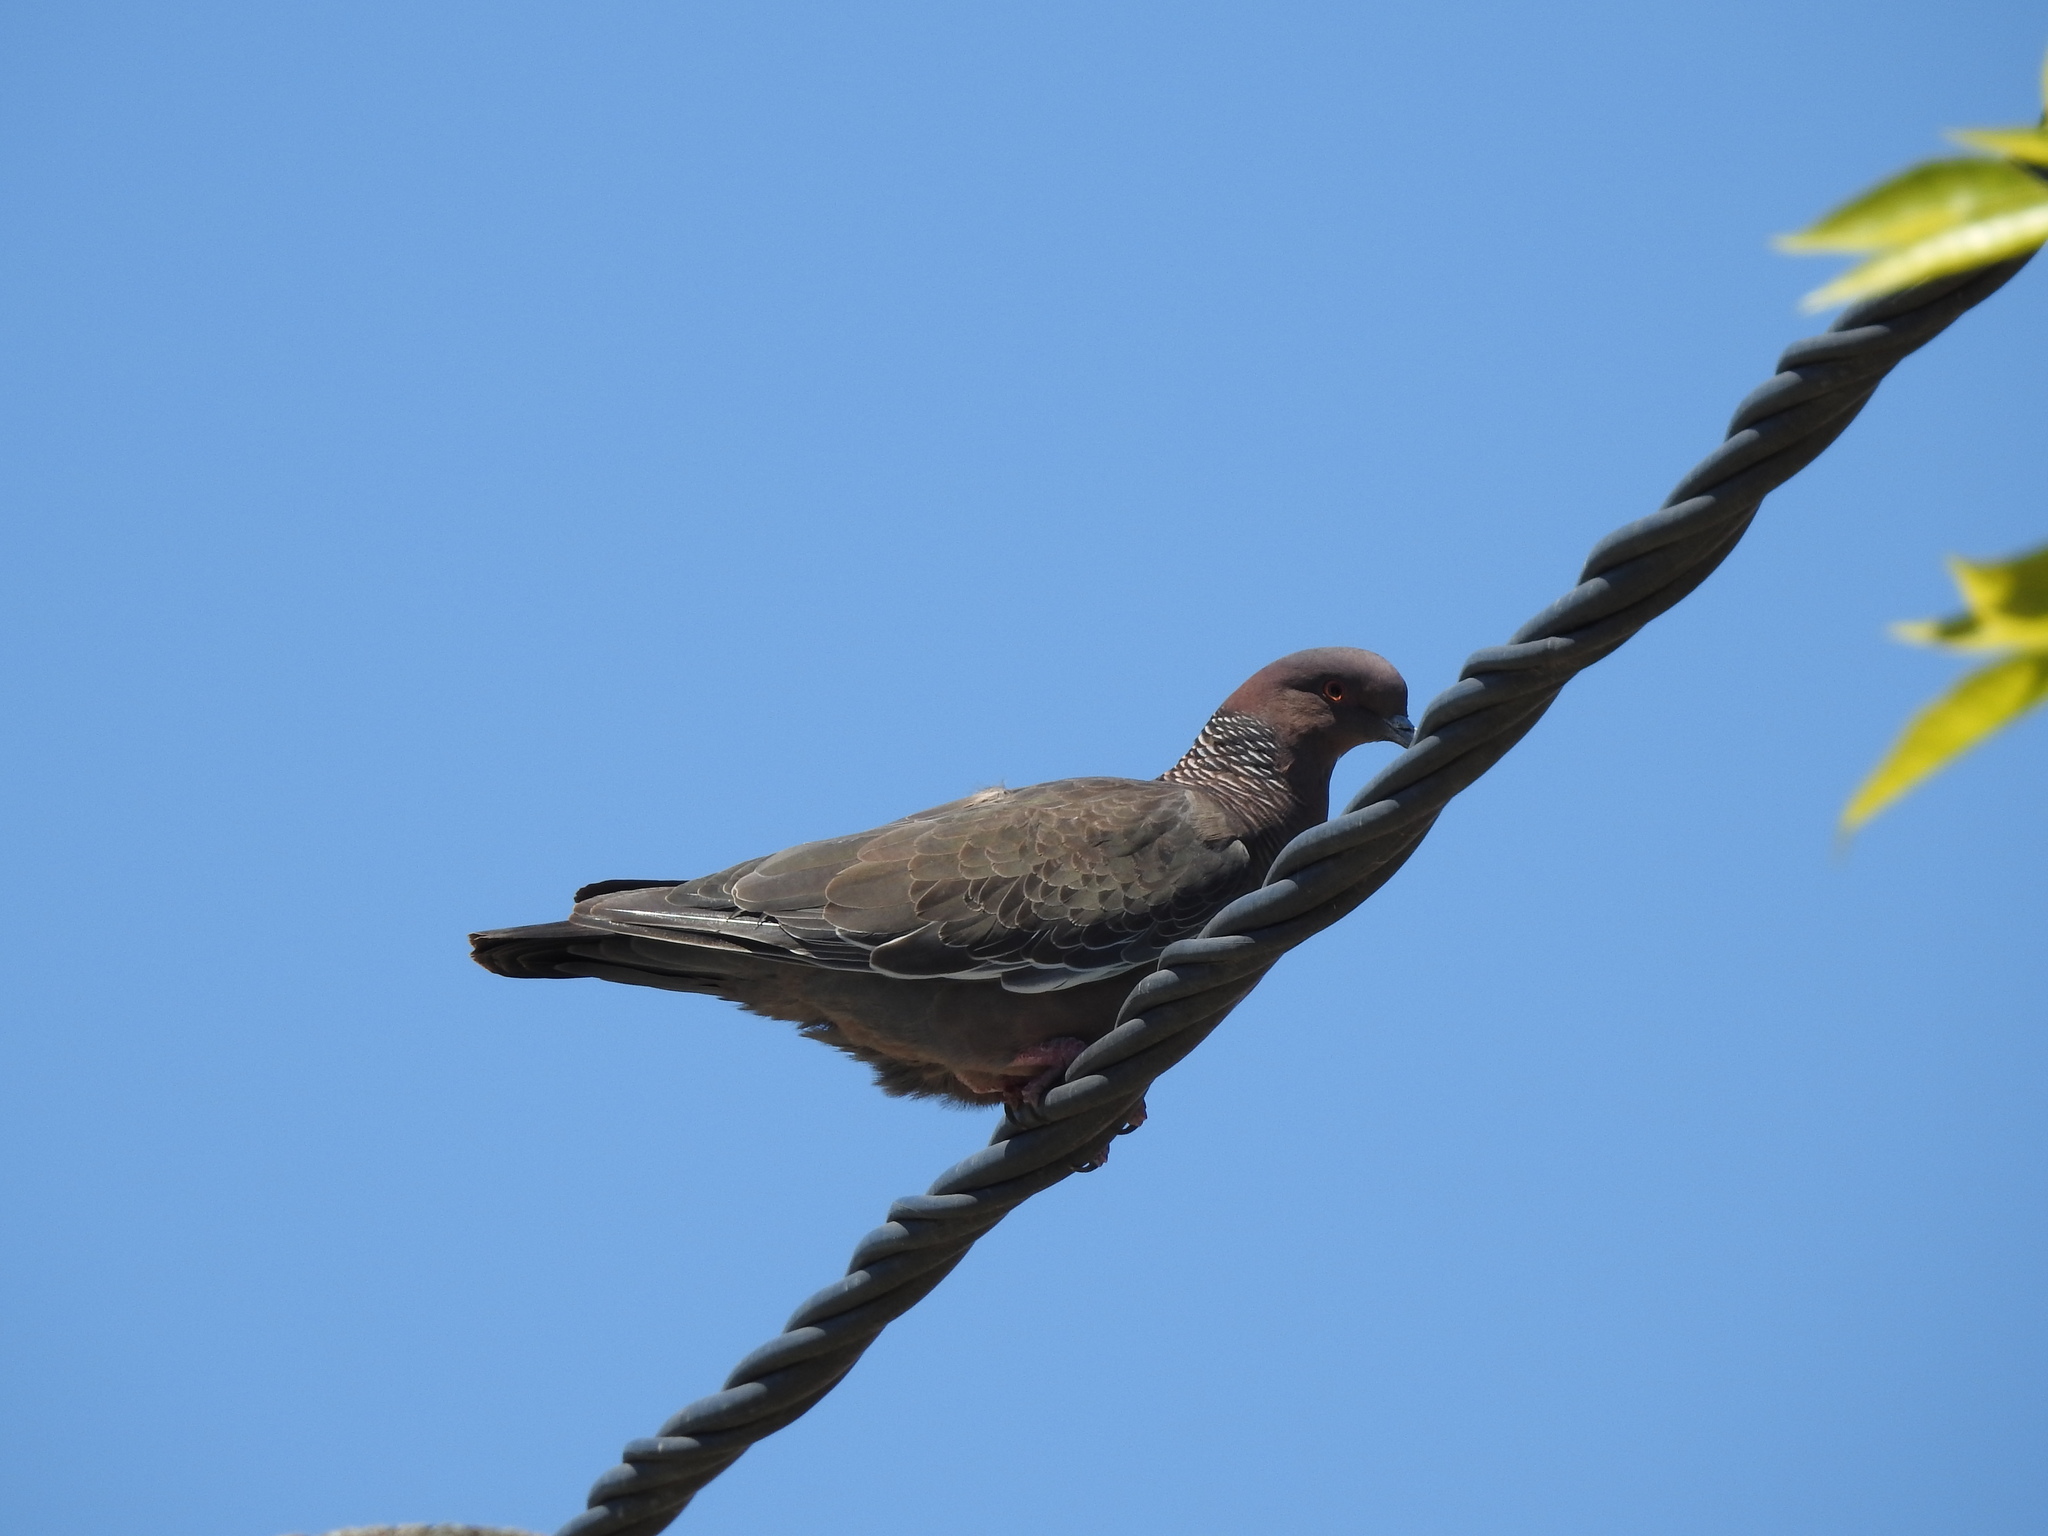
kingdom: Animalia
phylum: Chordata
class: Aves
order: Columbiformes
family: Columbidae
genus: Patagioenas
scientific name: Patagioenas picazuro
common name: Picazuro pigeon
